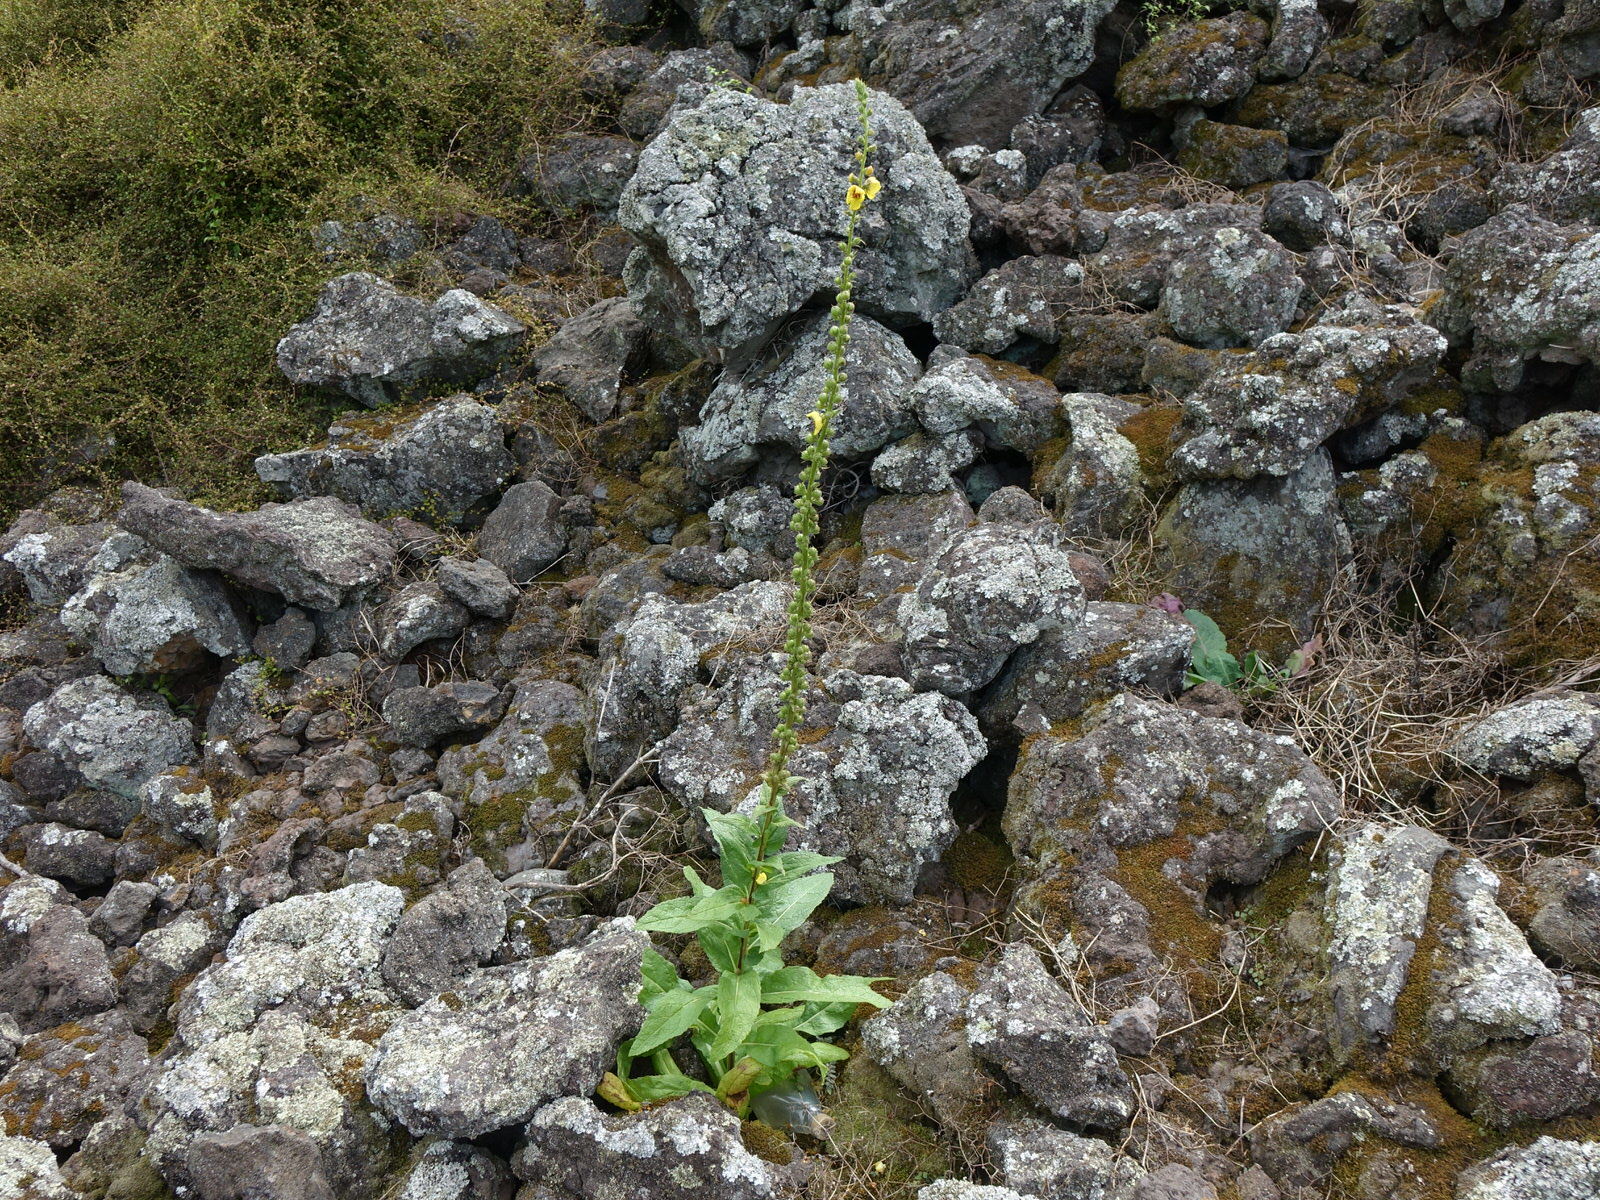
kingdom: Plantae
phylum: Tracheophyta
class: Magnoliopsida
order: Lamiales
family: Scrophulariaceae
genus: Verbascum
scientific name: Verbascum virgatum
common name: Twiggy mullein
